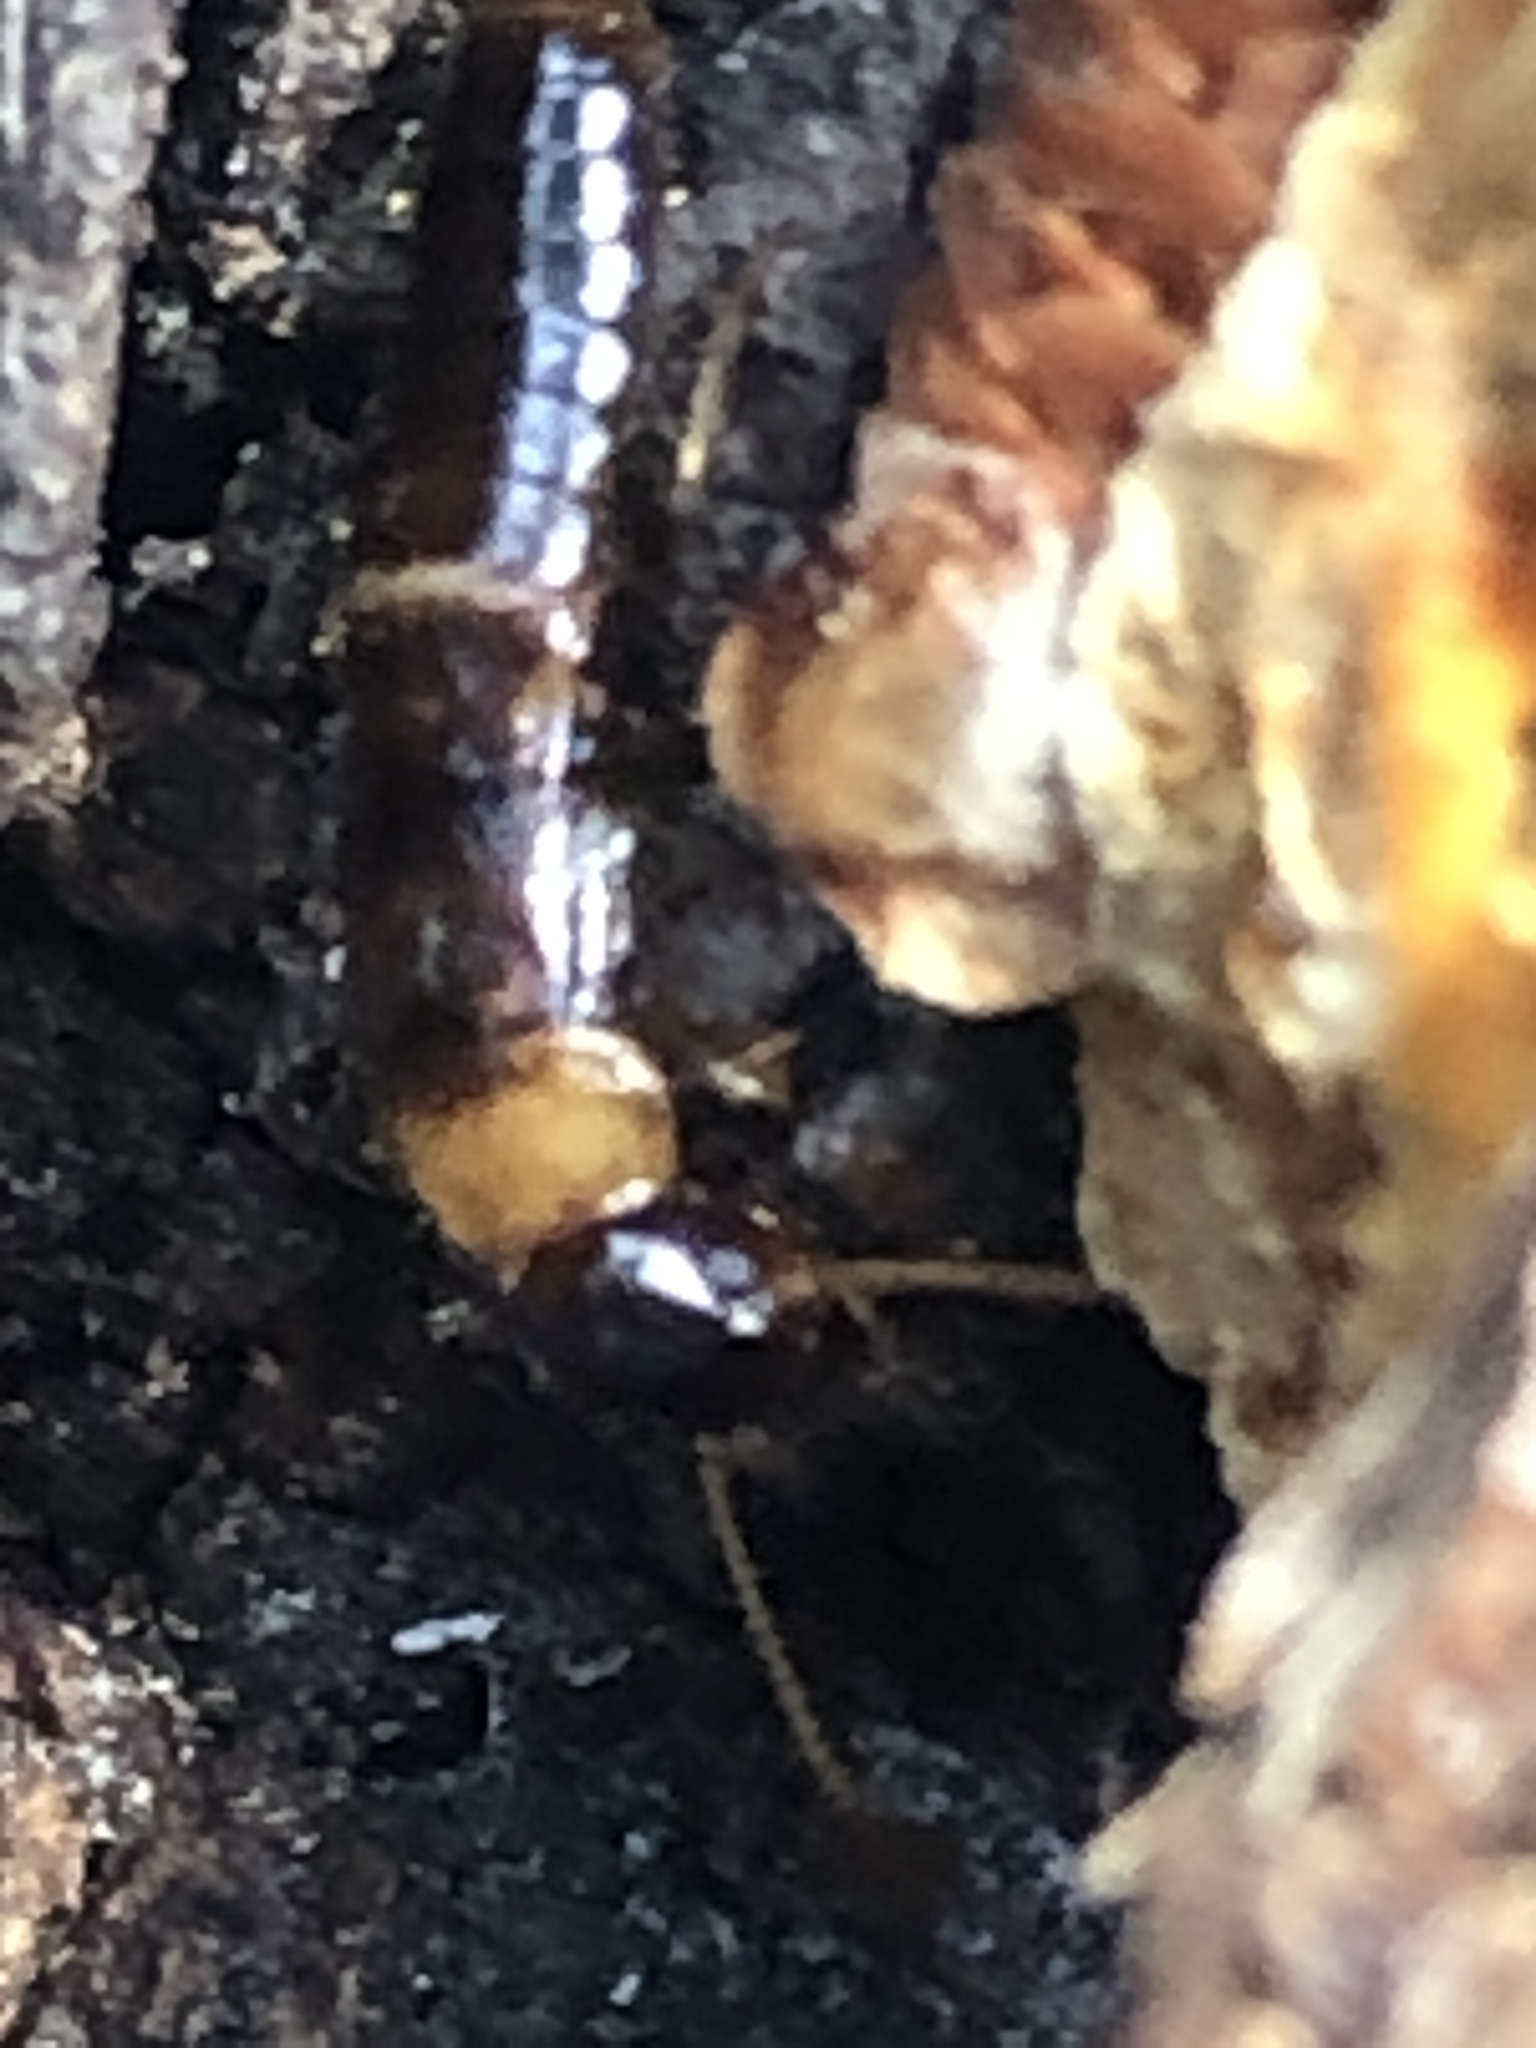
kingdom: Animalia
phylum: Arthropoda
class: Insecta
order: Blattodea
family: Kalotermitidae
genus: Kalotermes
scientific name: Kalotermes flavicollis
